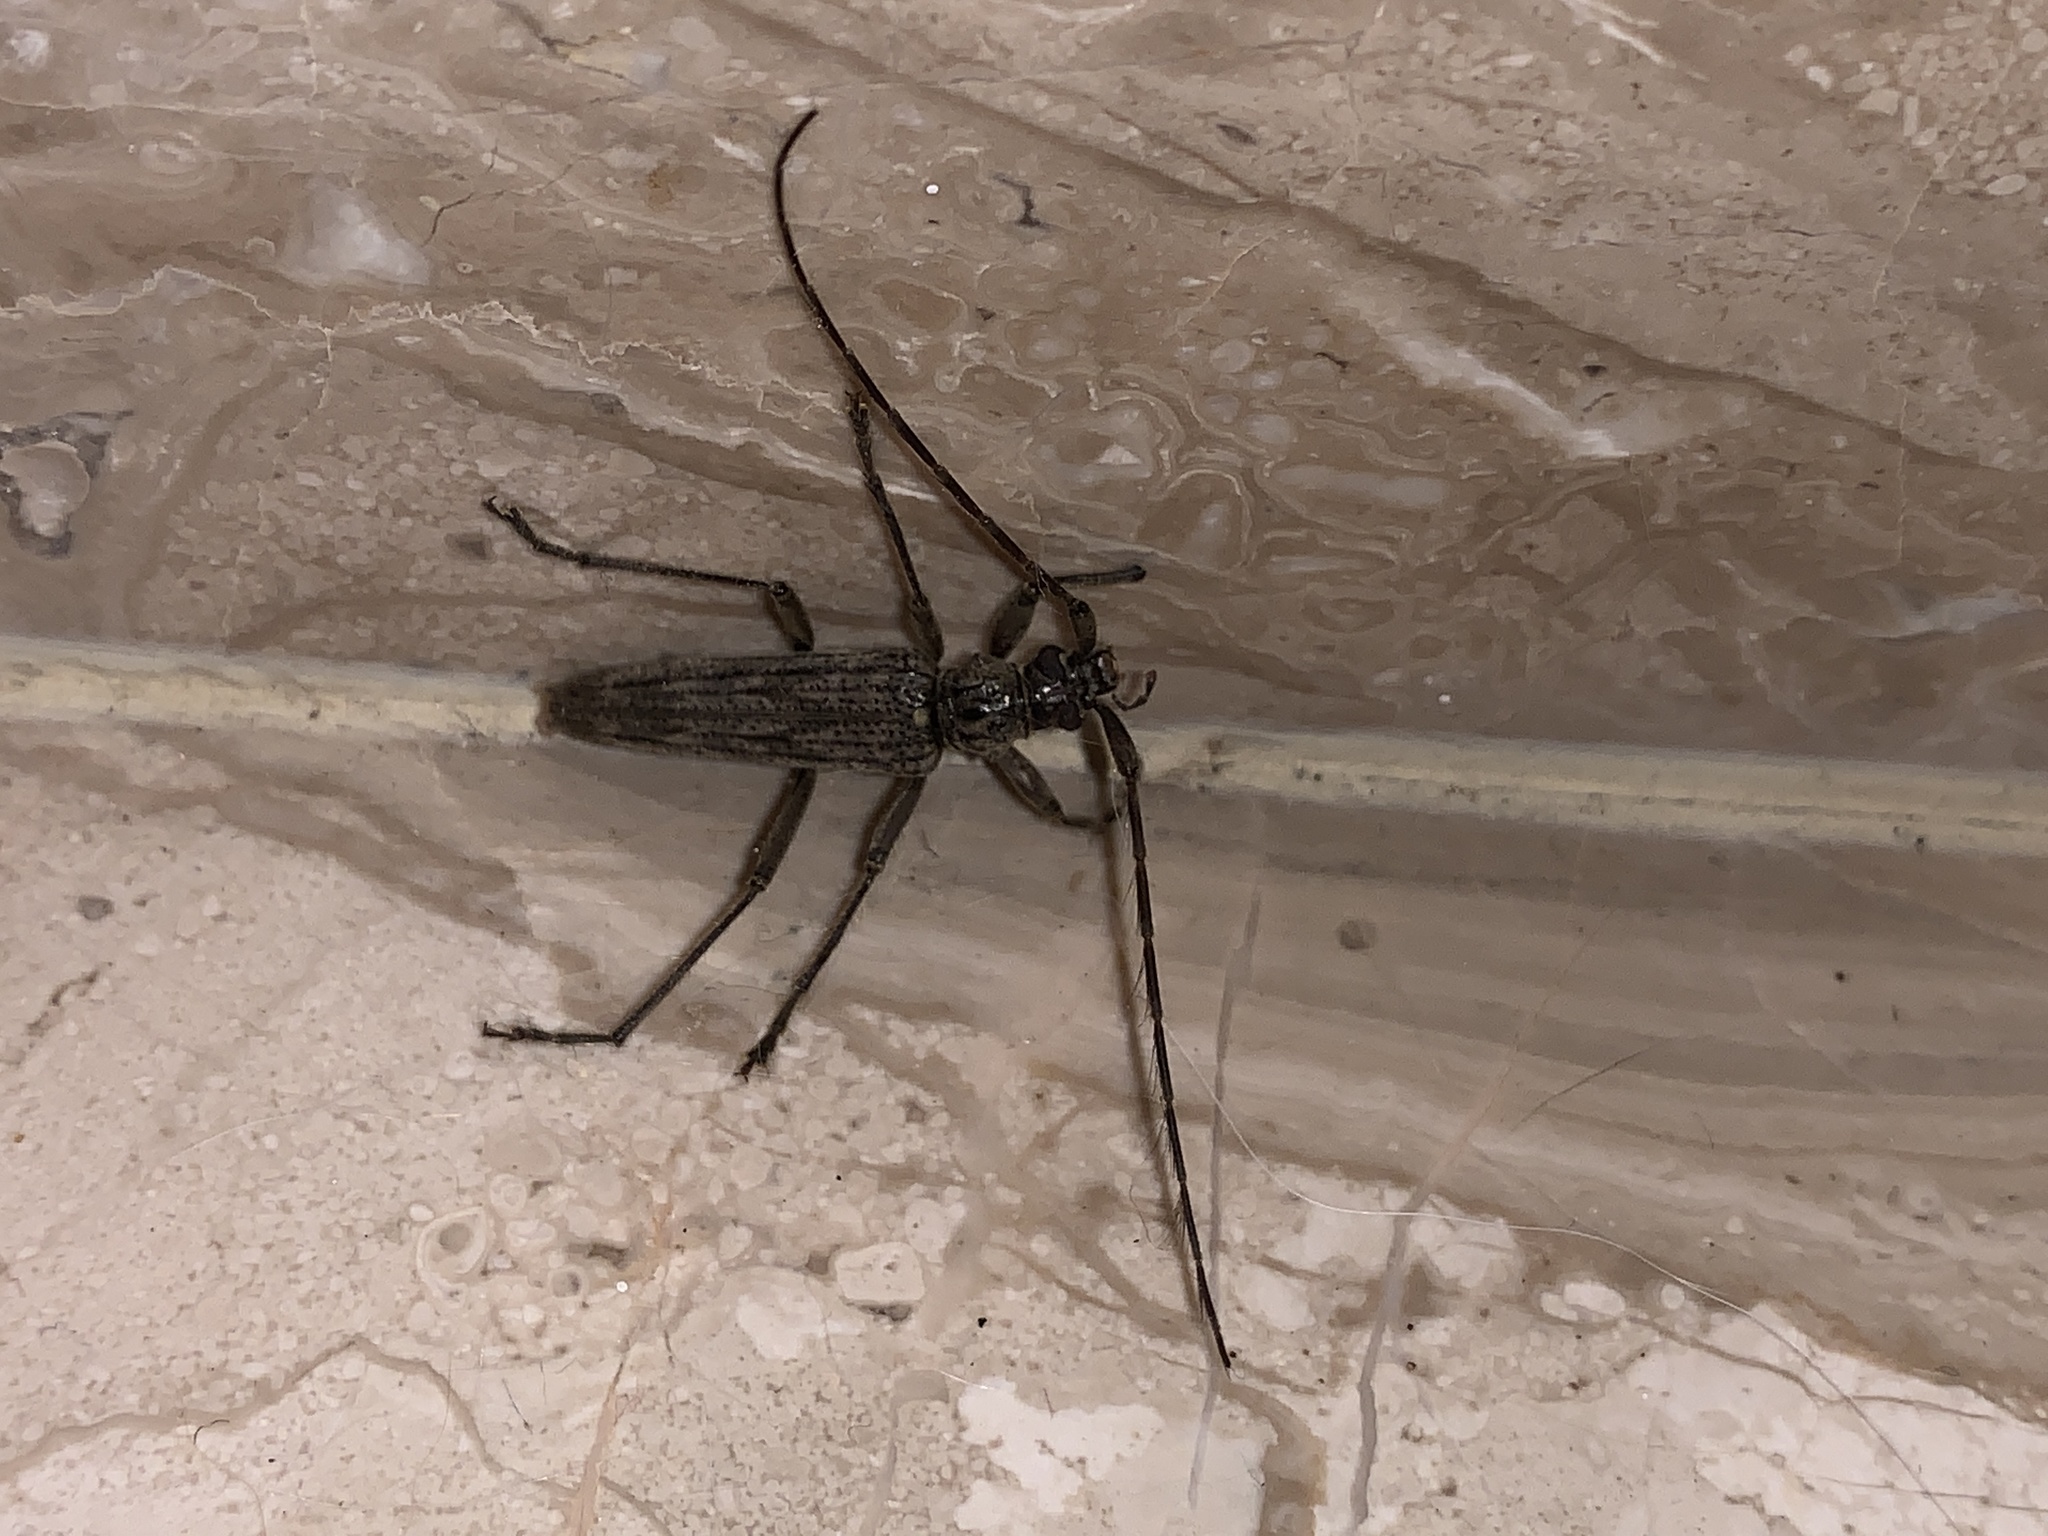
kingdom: Animalia
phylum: Arthropoda
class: Insecta
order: Coleoptera
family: Cerambycidae
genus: Elytrimitatrix
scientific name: Elytrimitatrix undata
